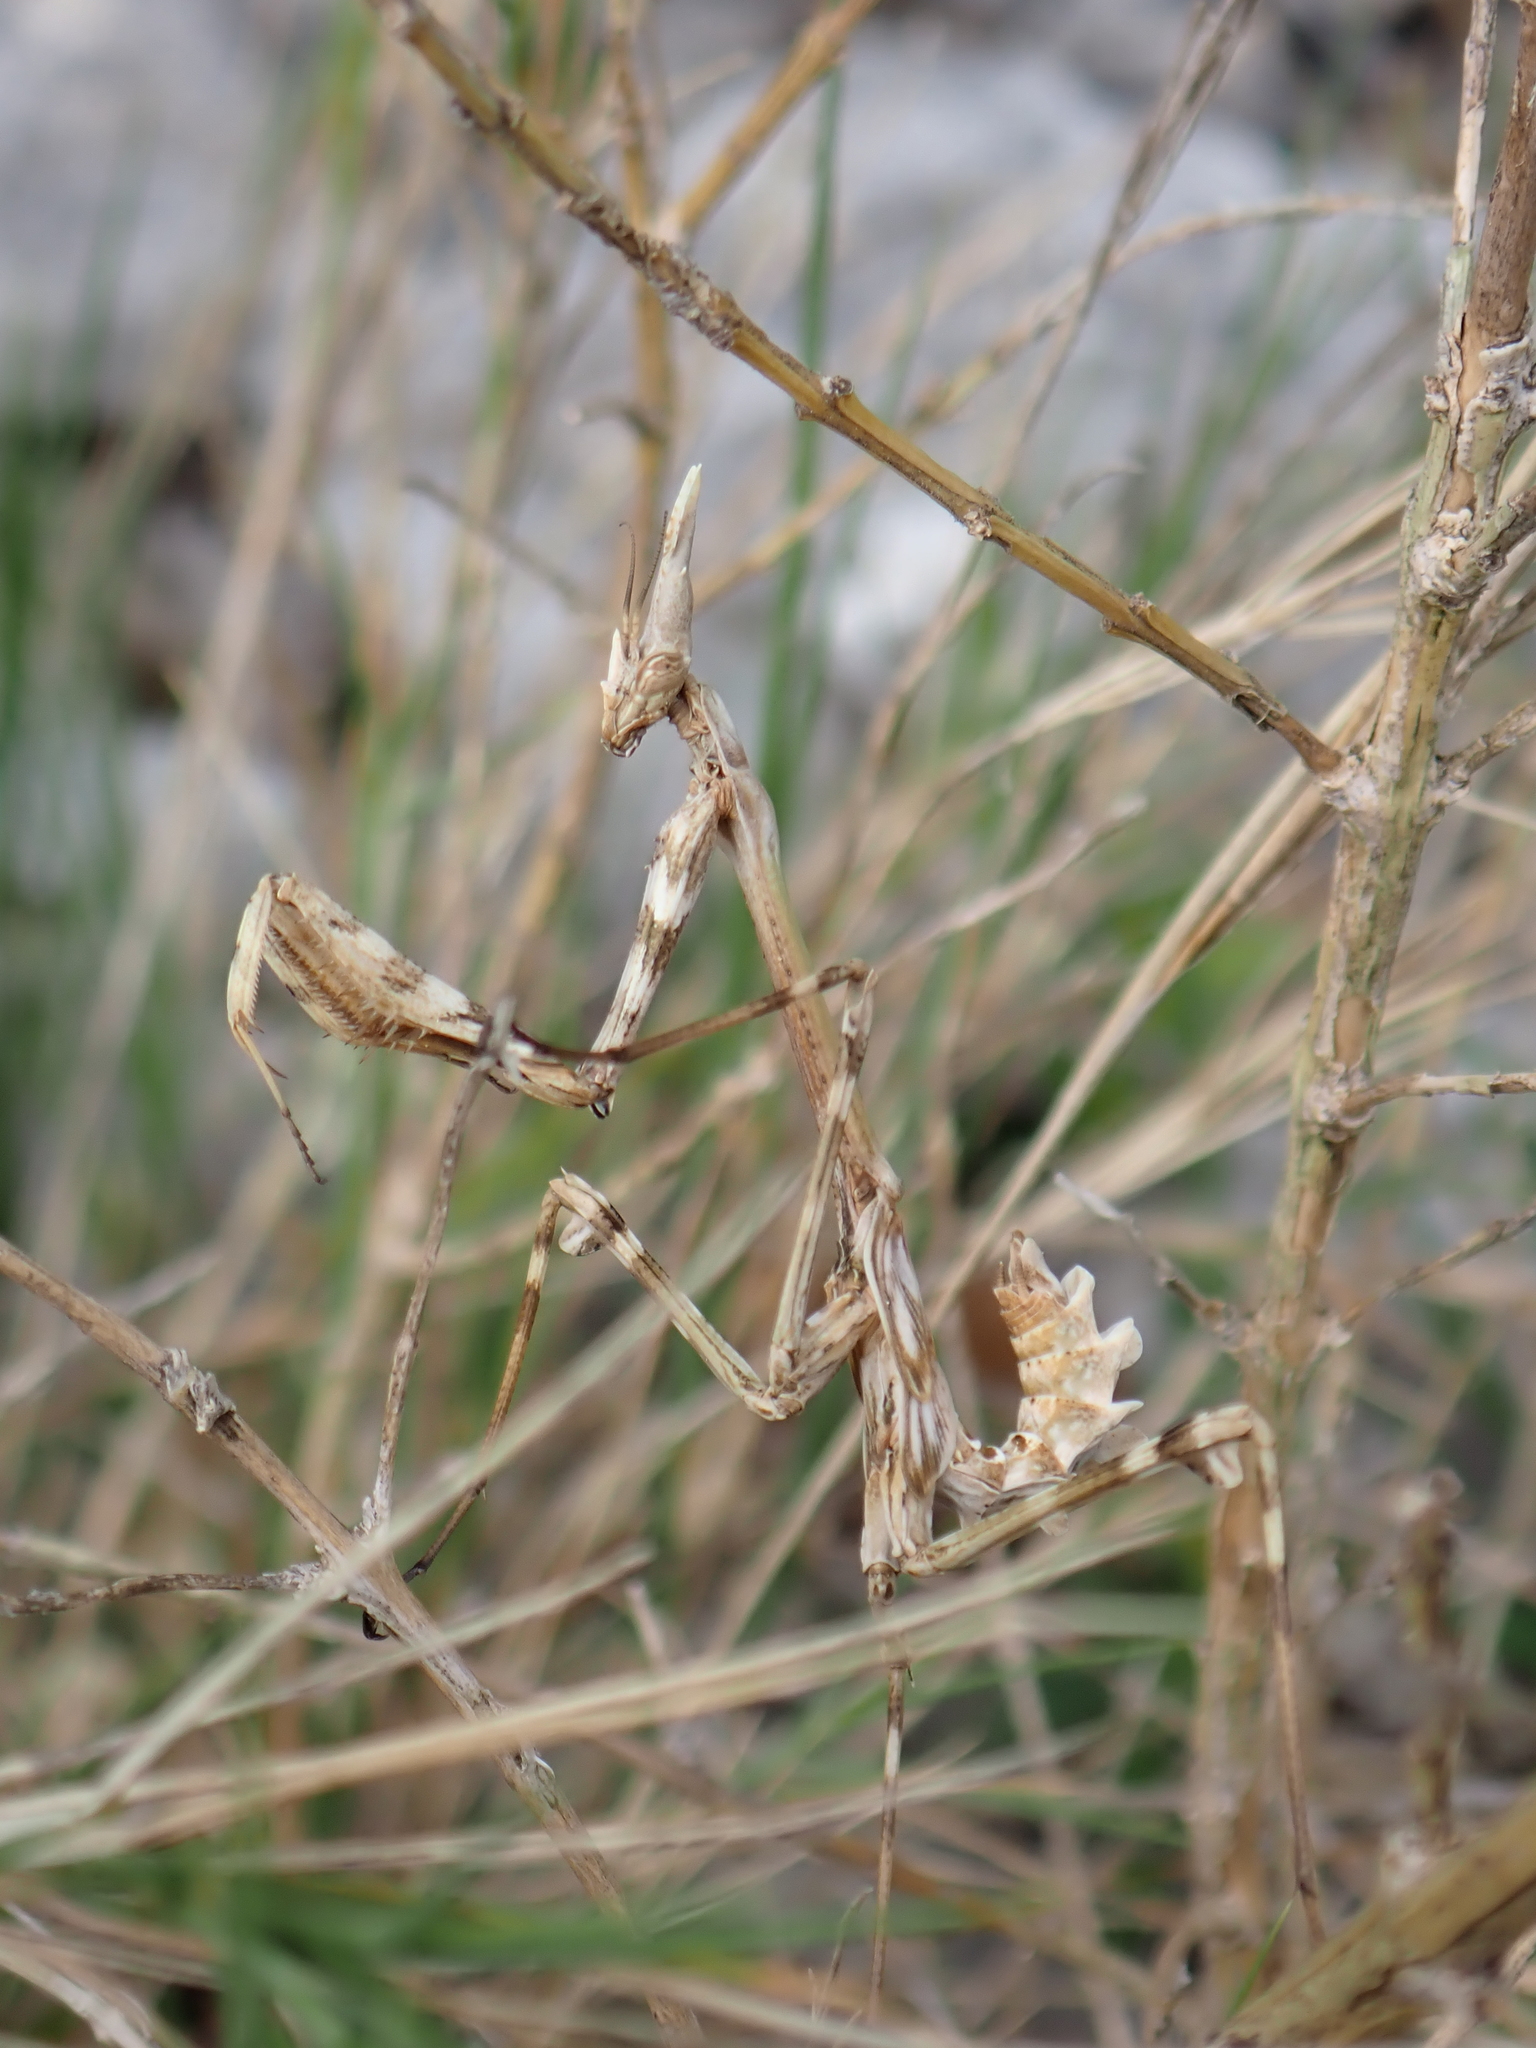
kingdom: Animalia
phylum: Arthropoda
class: Insecta
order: Mantodea
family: Empusidae
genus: Empusa
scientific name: Empusa pennata
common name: Conehead mantis
